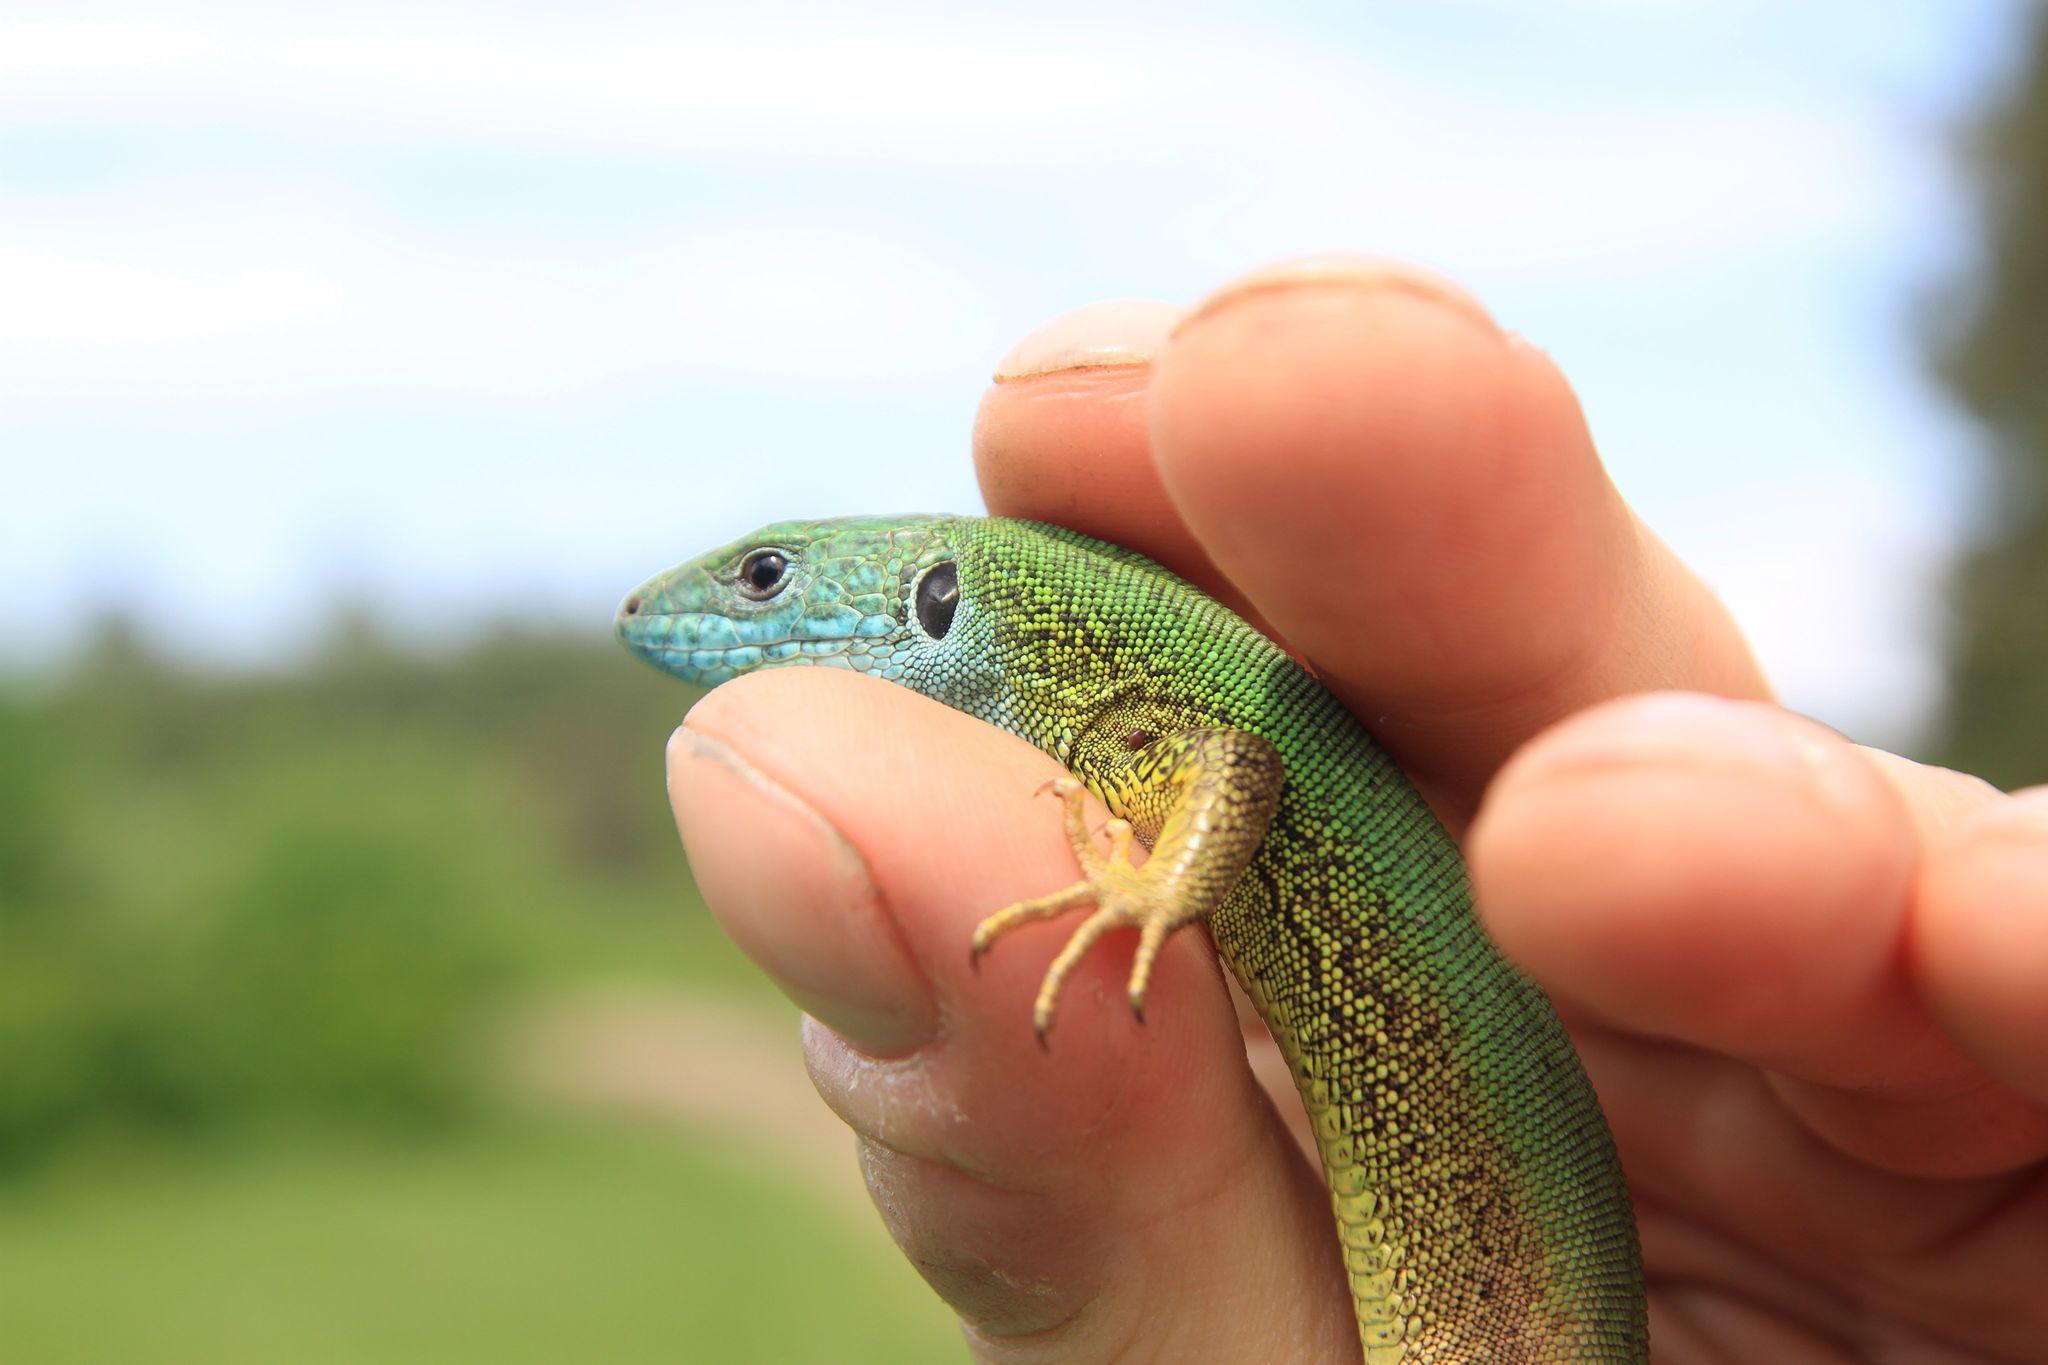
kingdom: Animalia
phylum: Chordata
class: Squamata
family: Lacertidae
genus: Lacerta
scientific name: Lacerta viridis
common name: European green lizard
